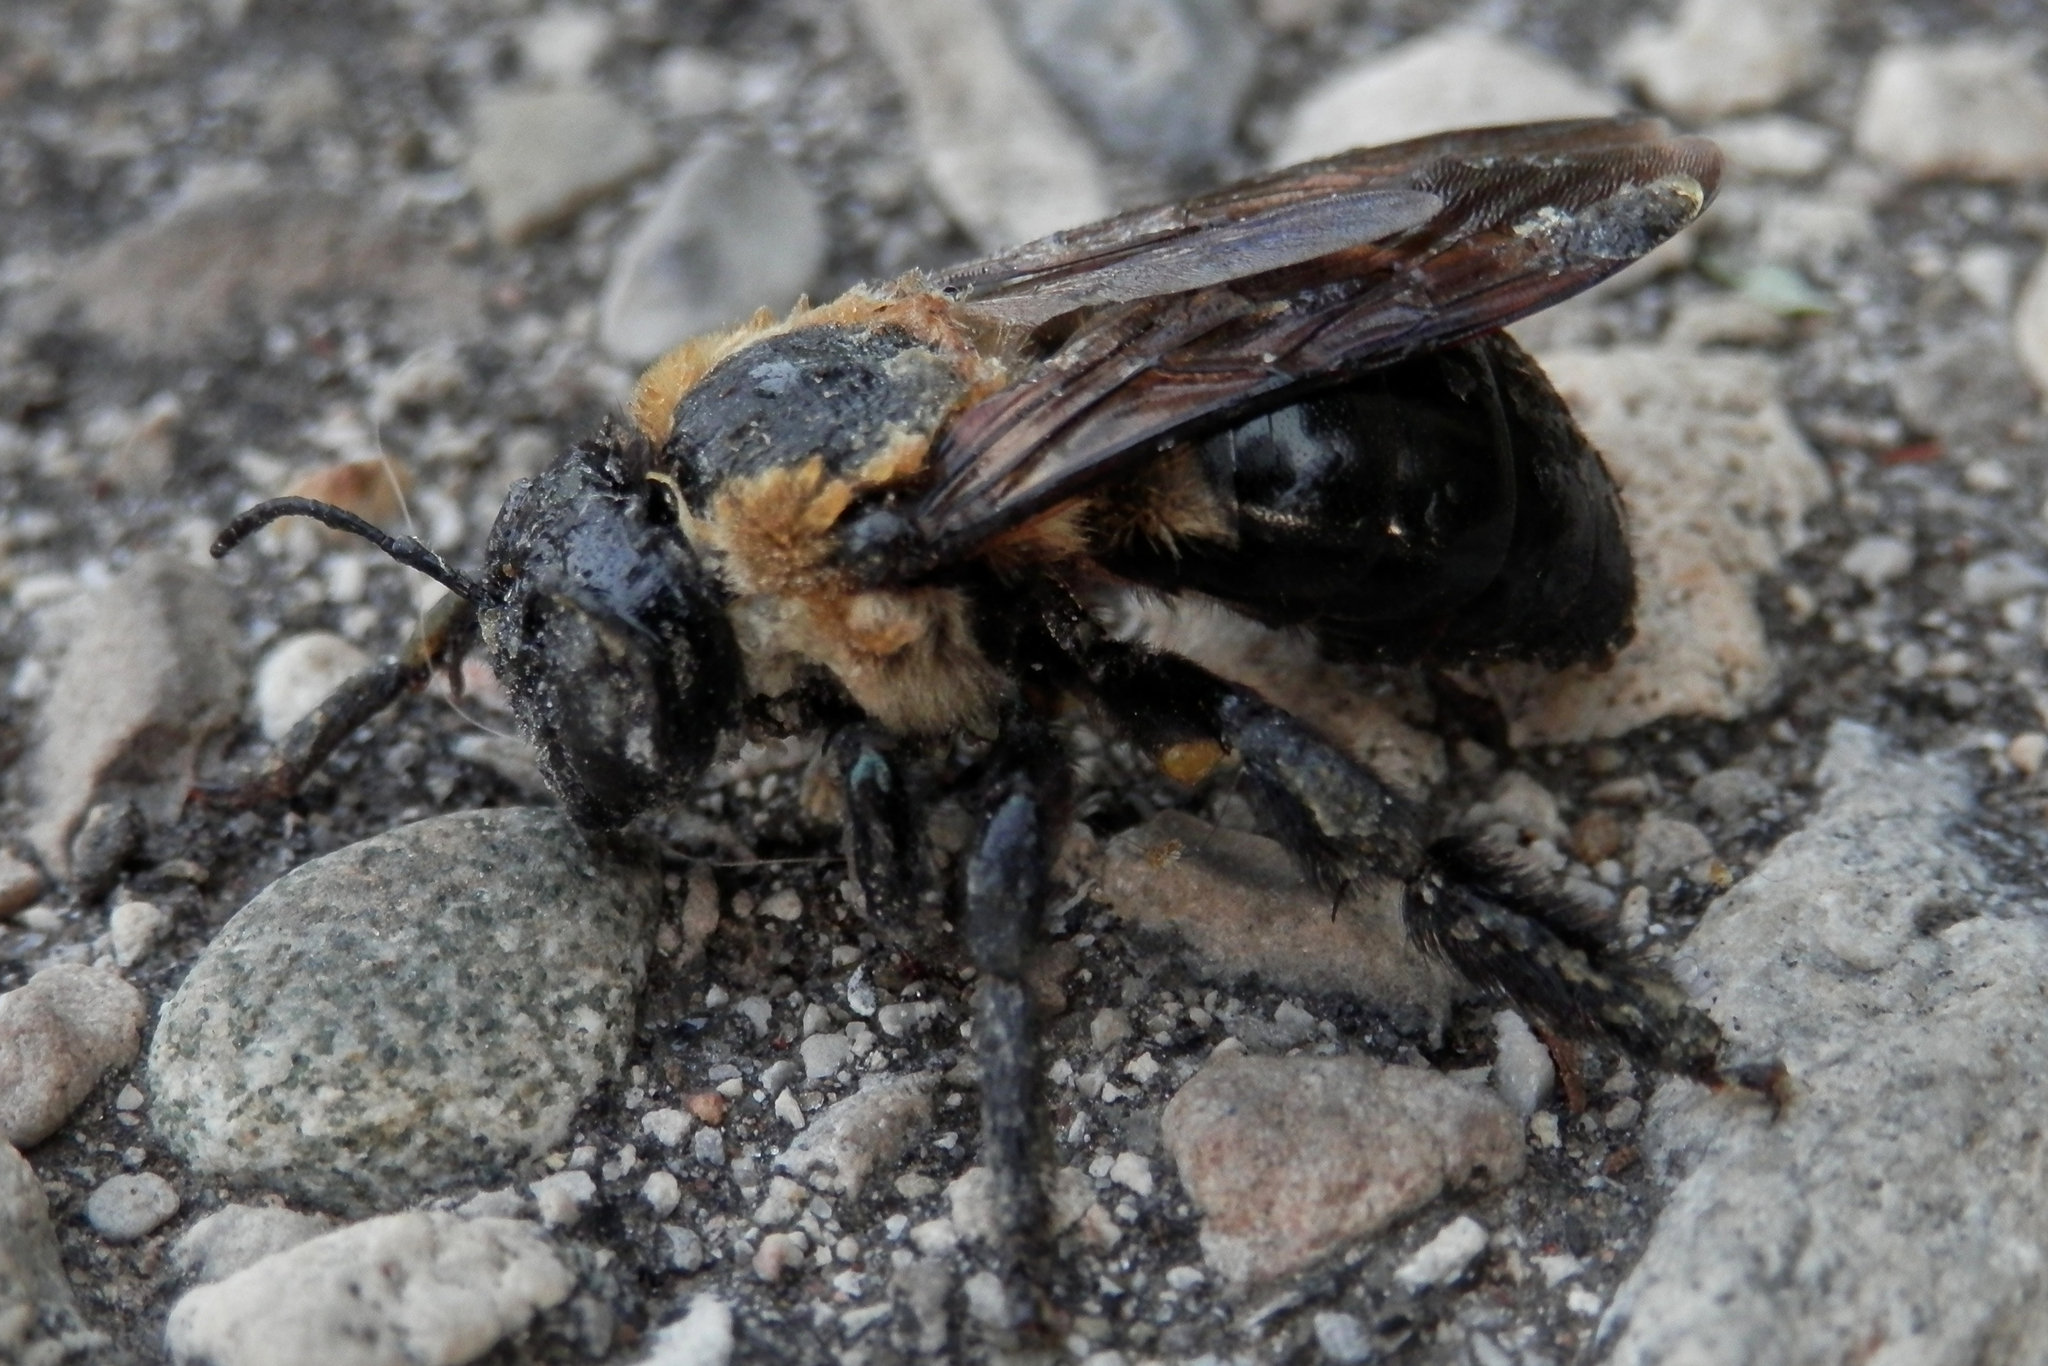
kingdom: Animalia
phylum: Arthropoda
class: Insecta
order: Hymenoptera
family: Apidae
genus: Xylocopa
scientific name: Xylocopa virginica
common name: Carpenter bee
